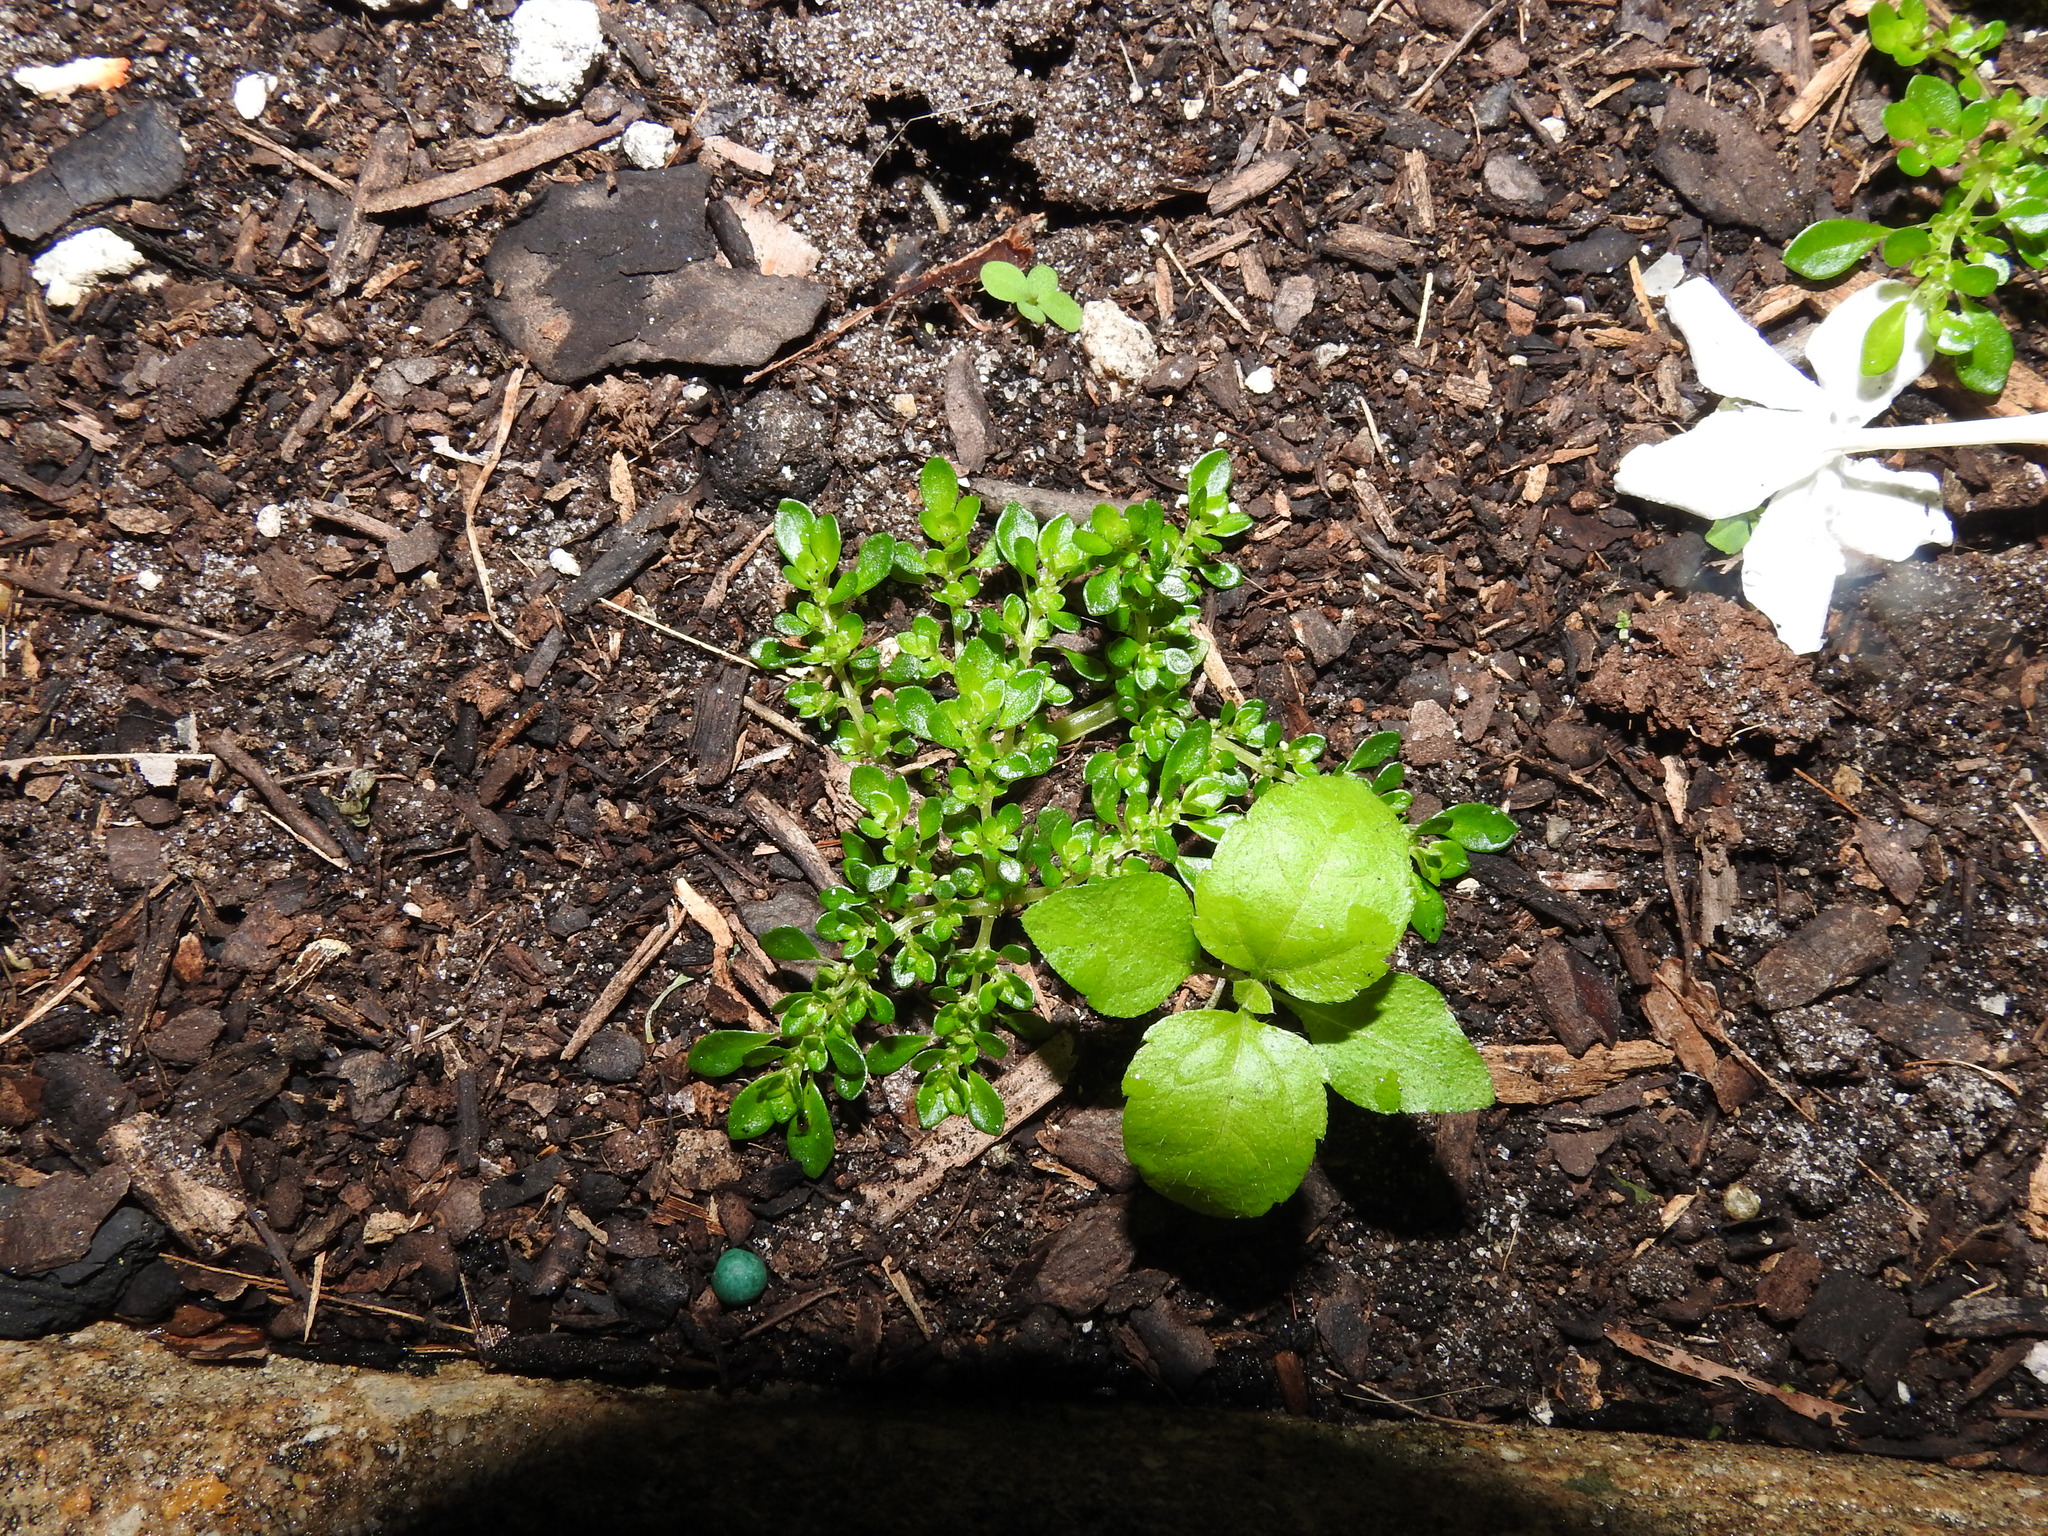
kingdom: Plantae
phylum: Tracheophyta
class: Magnoliopsida
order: Rosales
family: Urticaceae
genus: Pilea
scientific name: Pilea microphylla
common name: Artillery-plant
